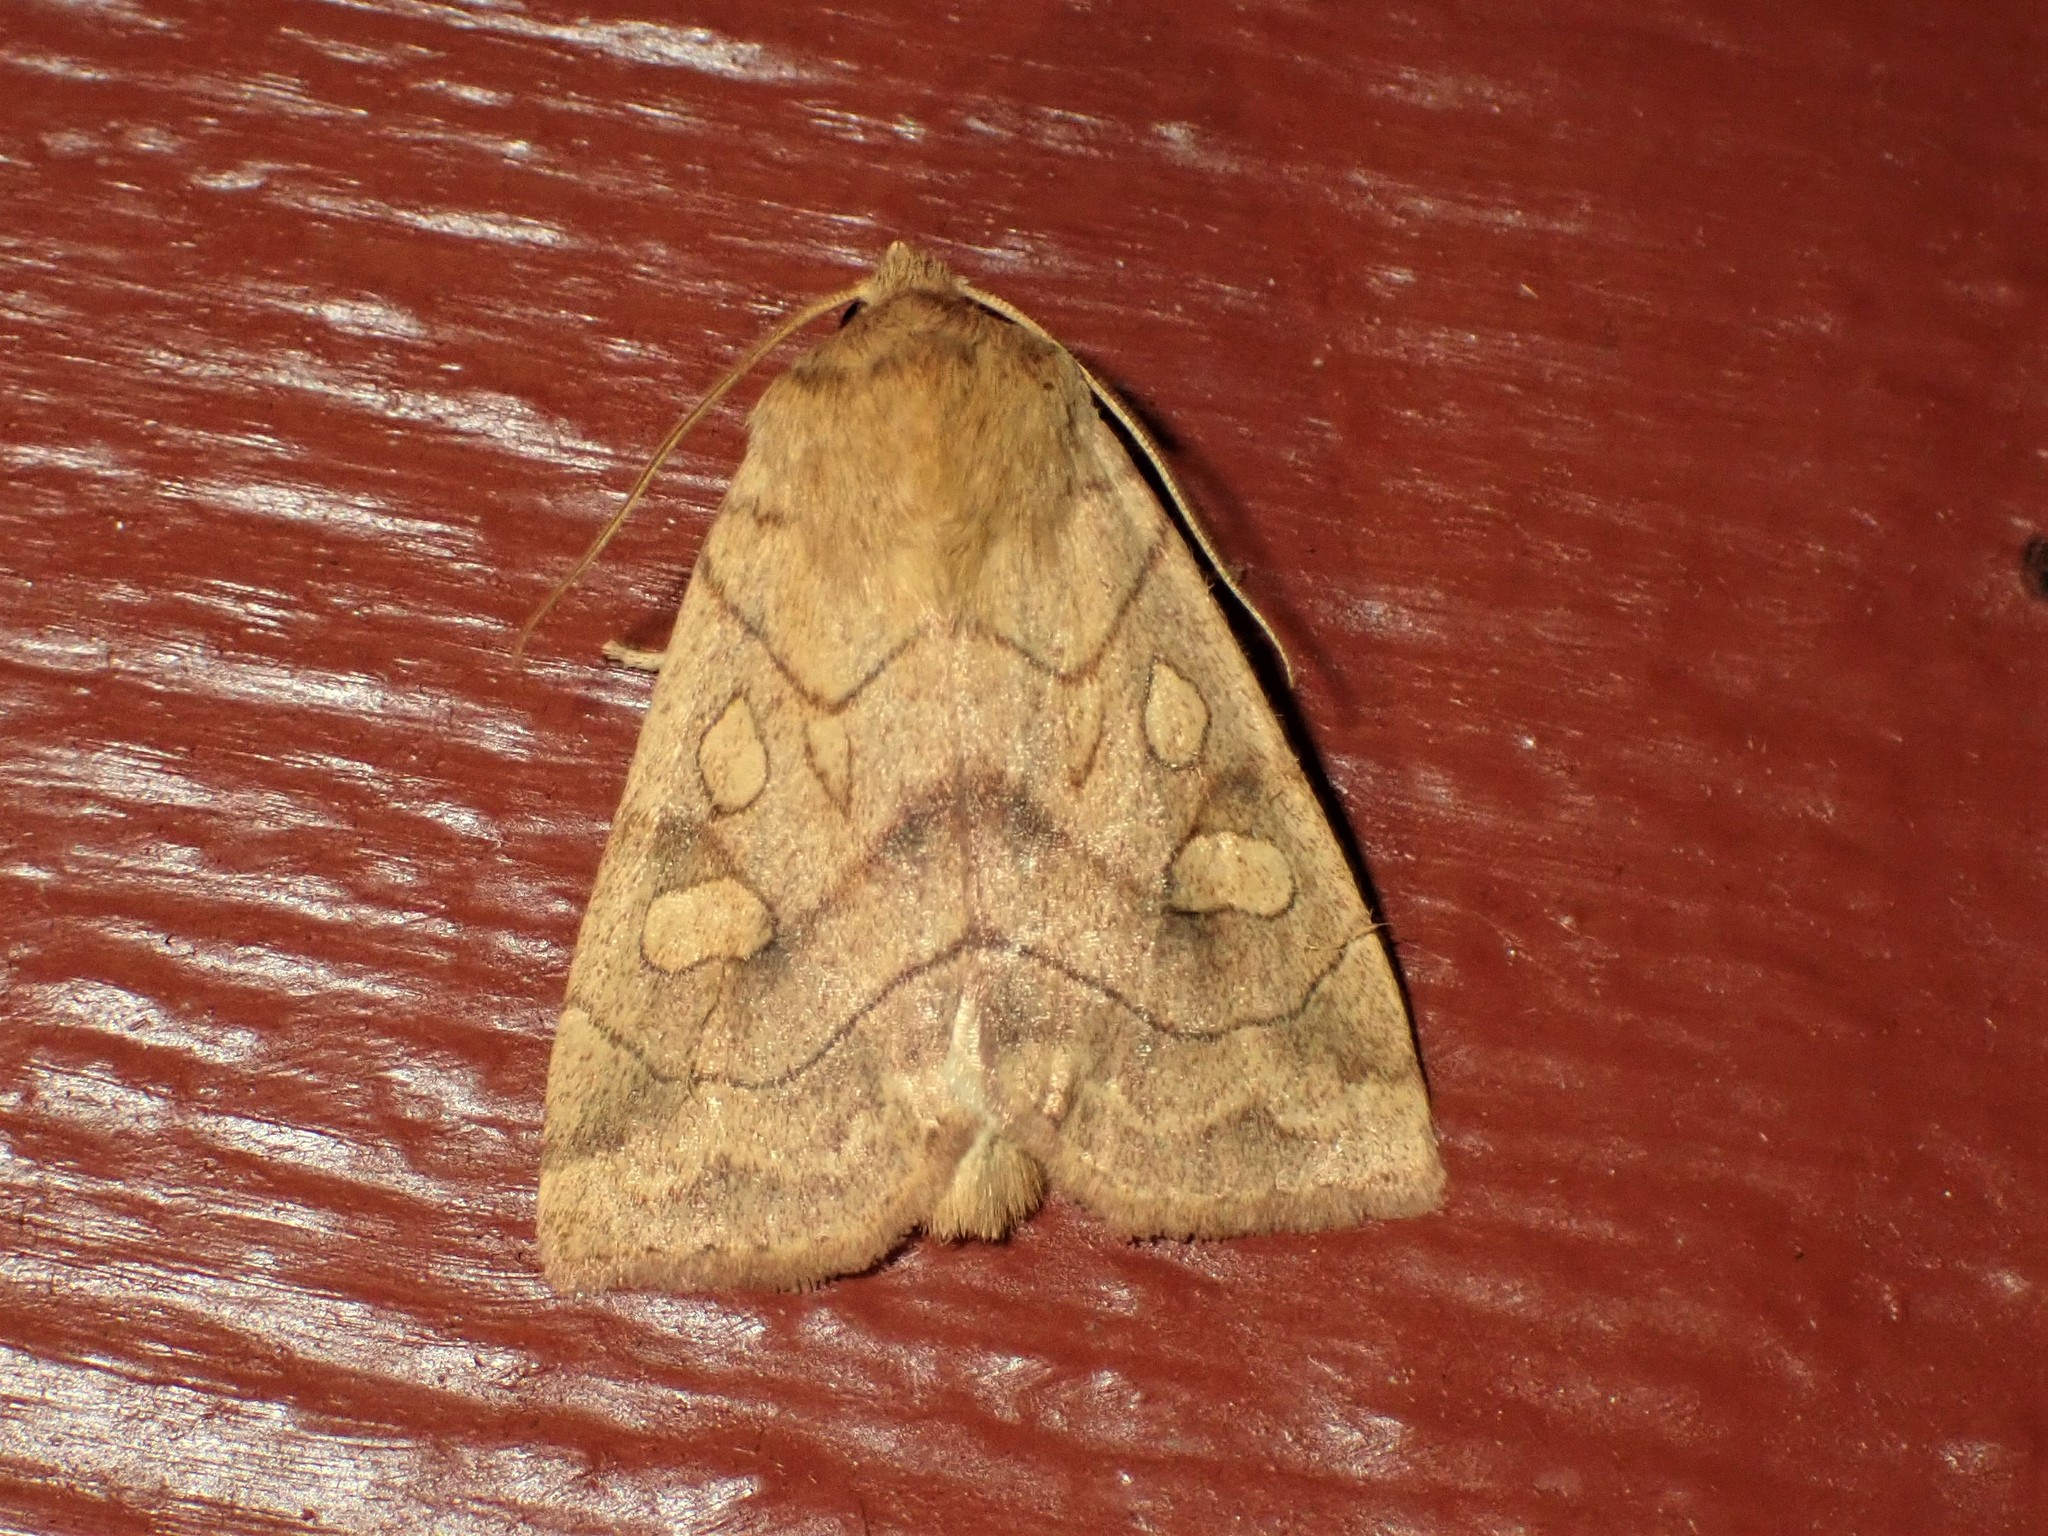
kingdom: Animalia
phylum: Arthropoda
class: Insecta
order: Lepidoptera
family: Noctuidae
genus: Enargia
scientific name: Enargia decolor
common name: Aspen twoleaf tier moth
